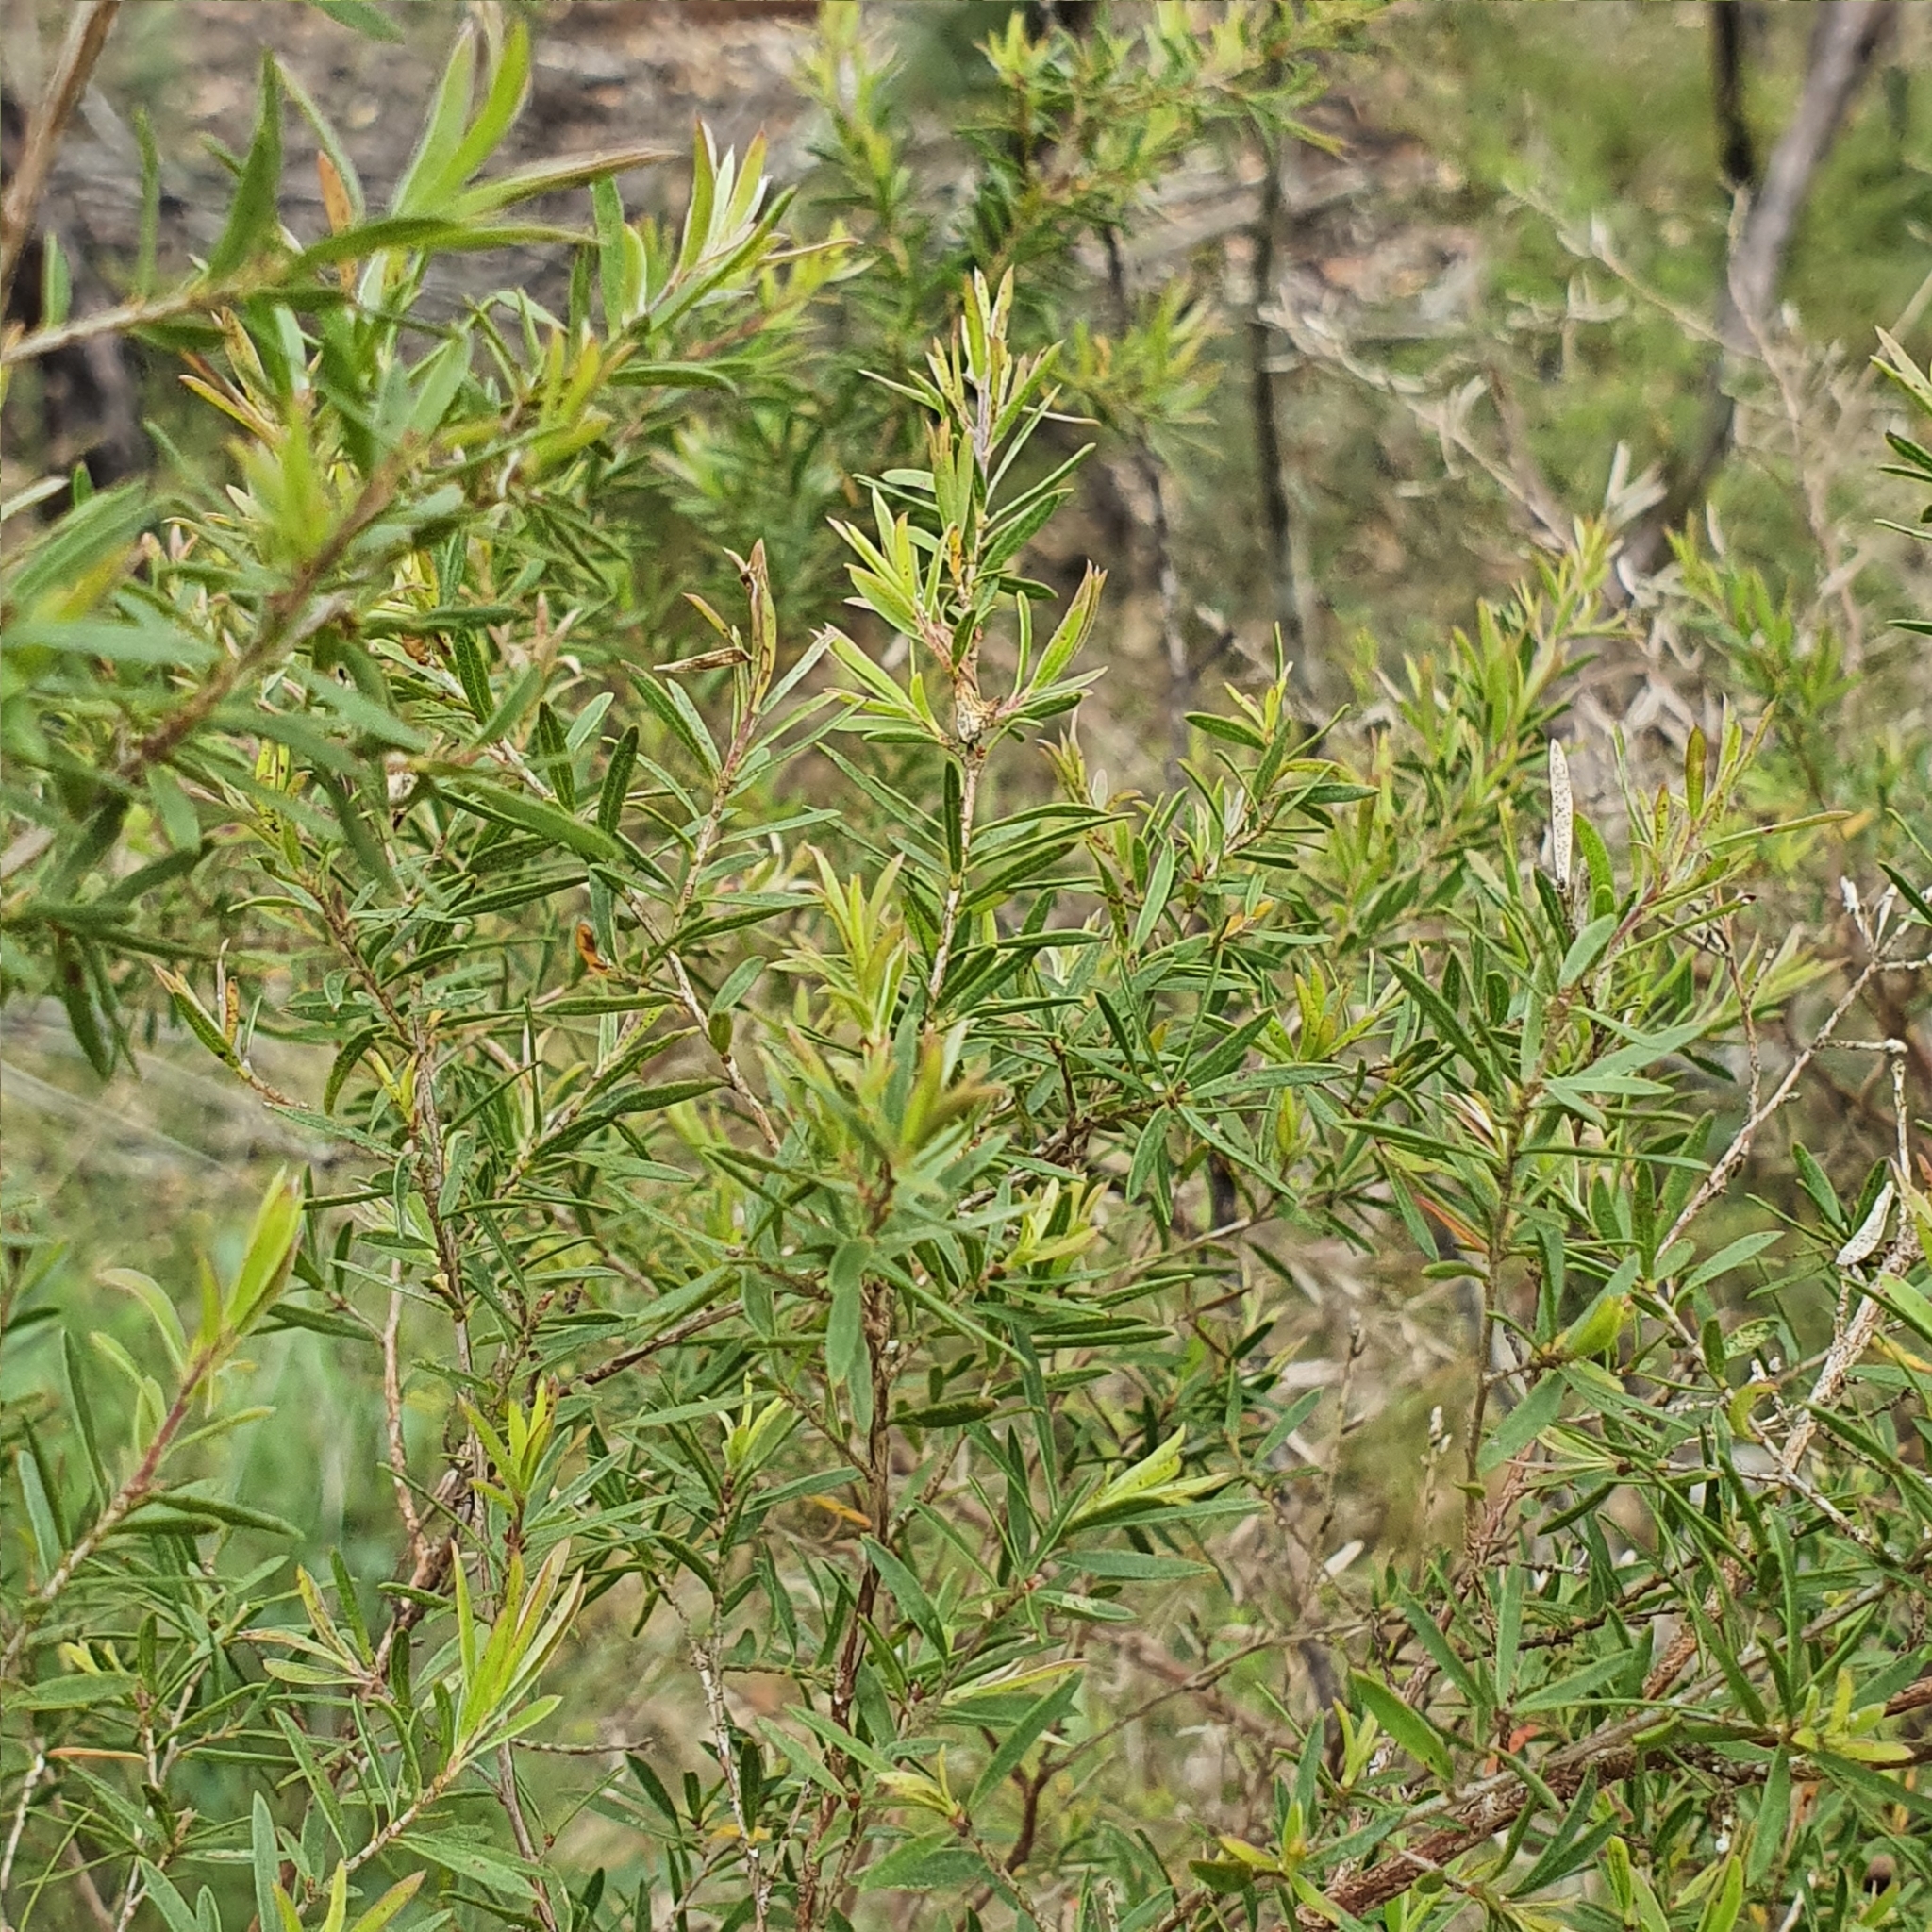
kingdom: Plantae
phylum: Tracheophyta
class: Magnoliopsida
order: Myrtales
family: Myrtaceae
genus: Leptospermum
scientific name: Leptospermum trinervium
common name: Flaky-barked tea-tree
